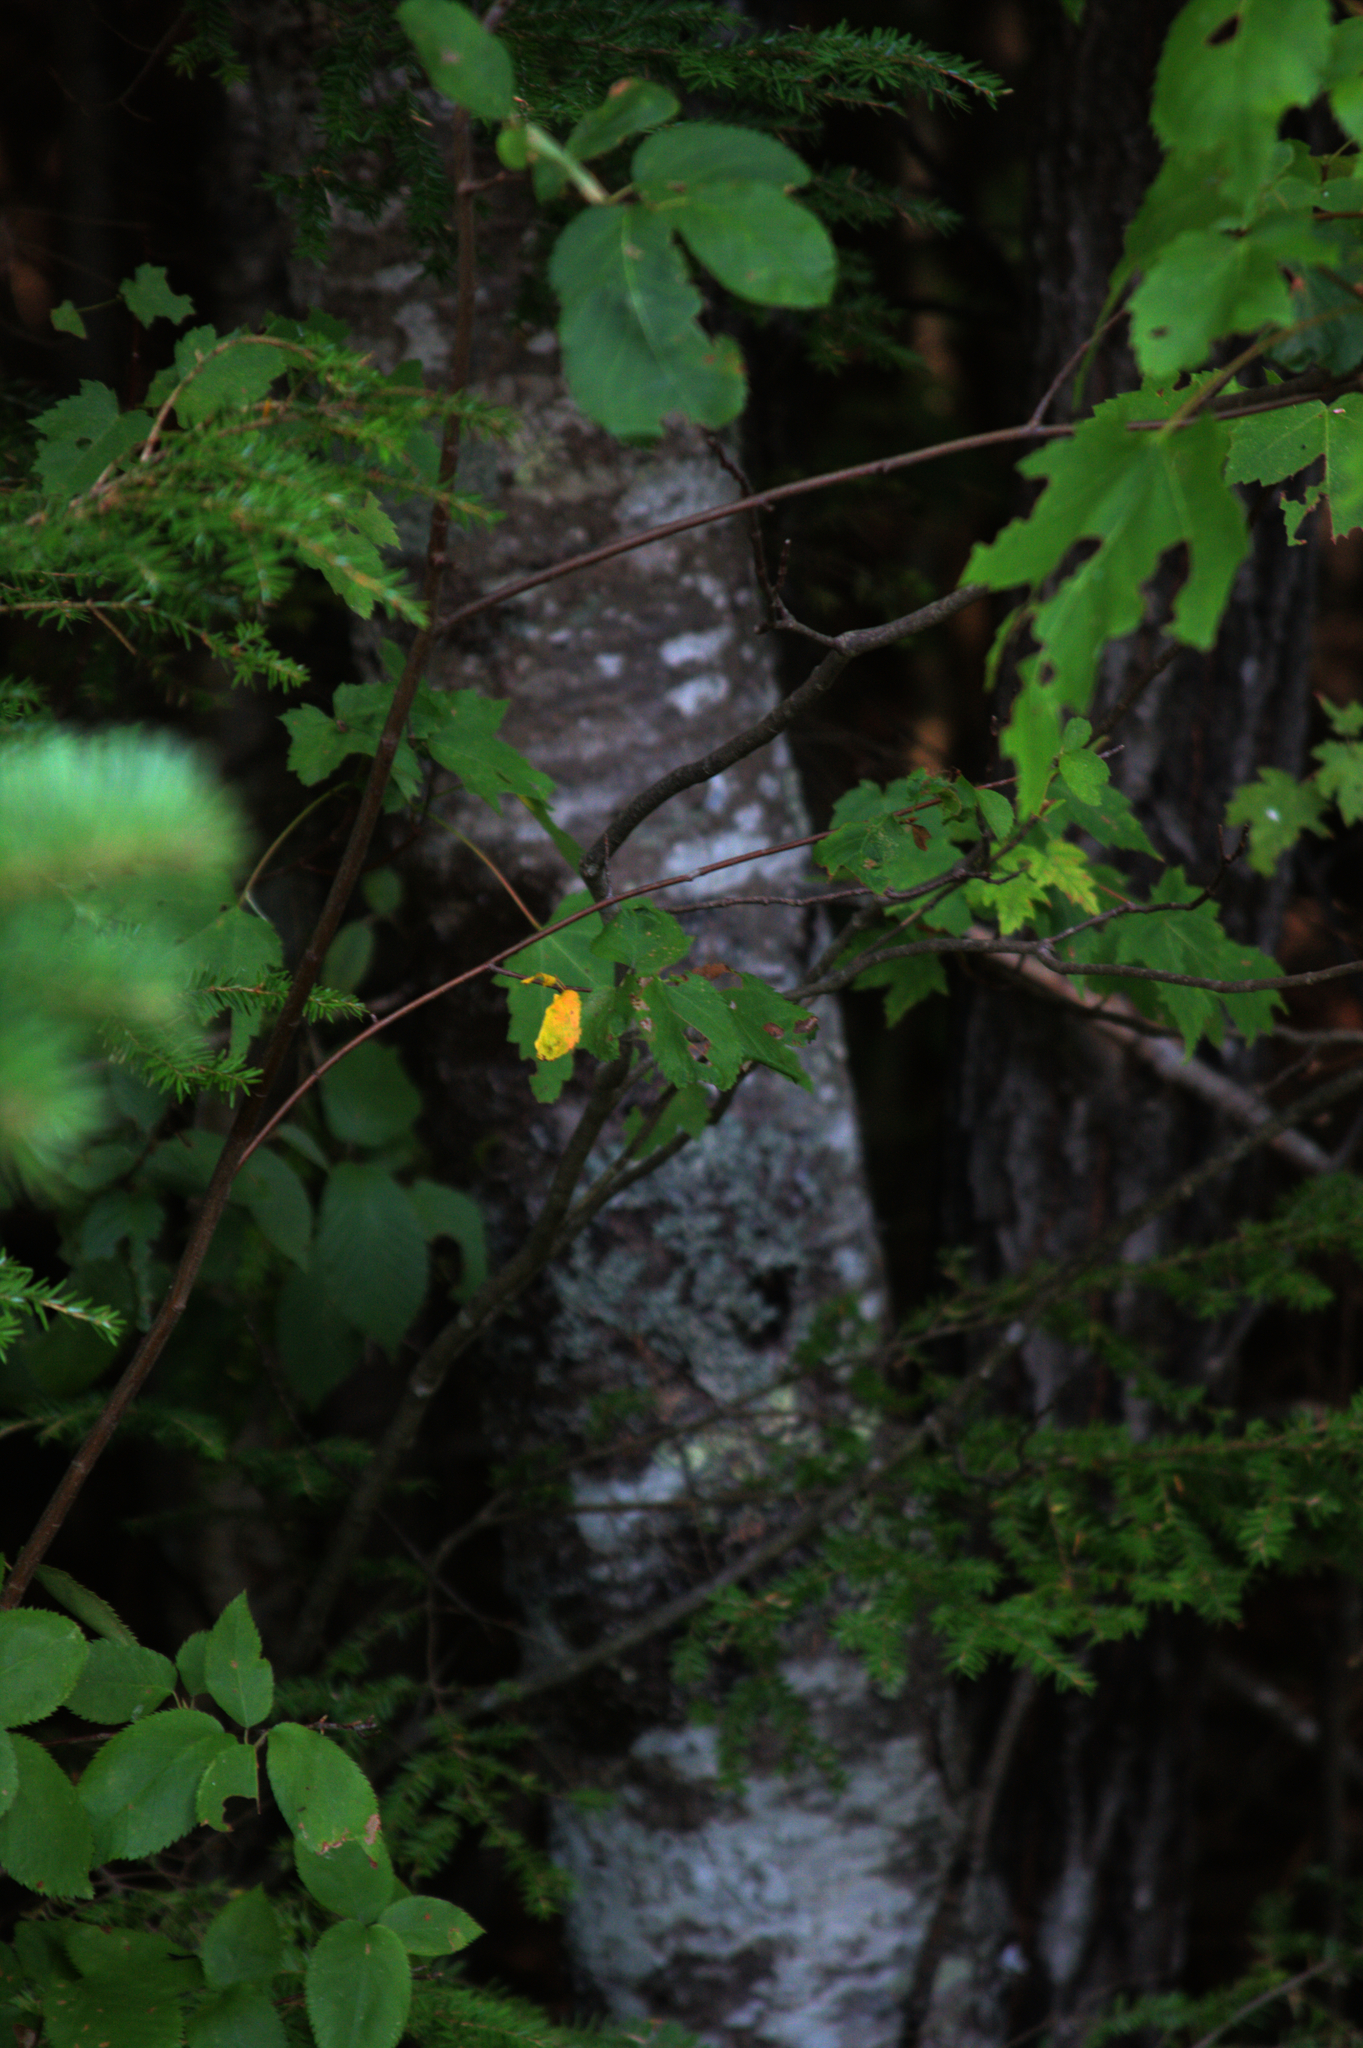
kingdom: Plantae
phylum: Tracheophyta
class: Pinopsida
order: Pinales
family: Pinaceae
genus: Abies
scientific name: Abies balsamea
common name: Balsam fir
